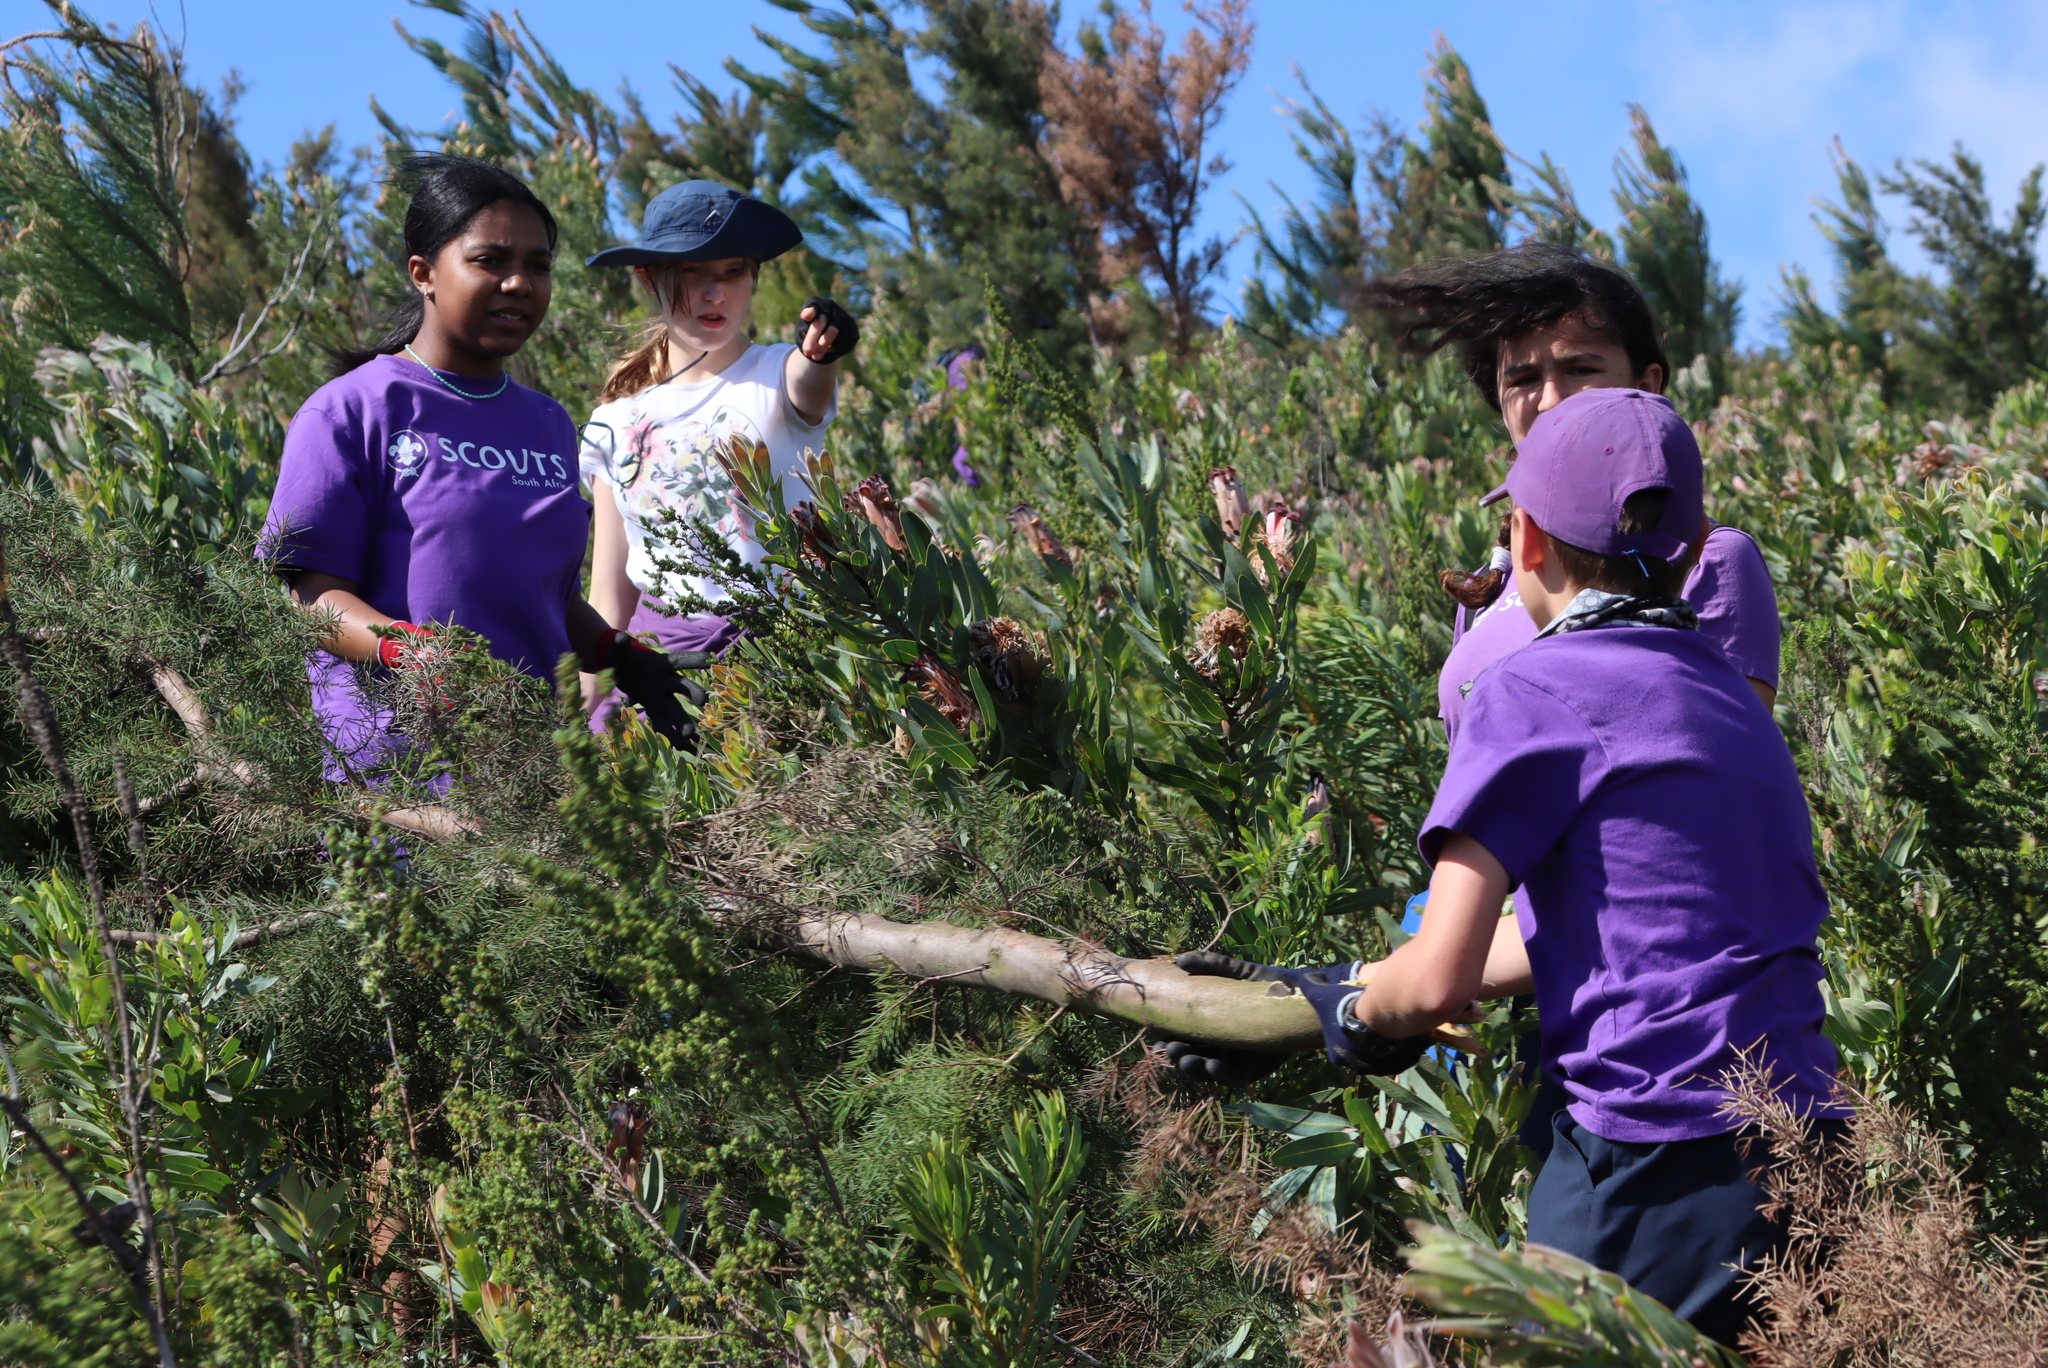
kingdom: Plantae
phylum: Tracheophyta
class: Magnoliopsida
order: Proteales
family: Proteaceae
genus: Hakea
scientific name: Hakea sericea
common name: Needle bush
